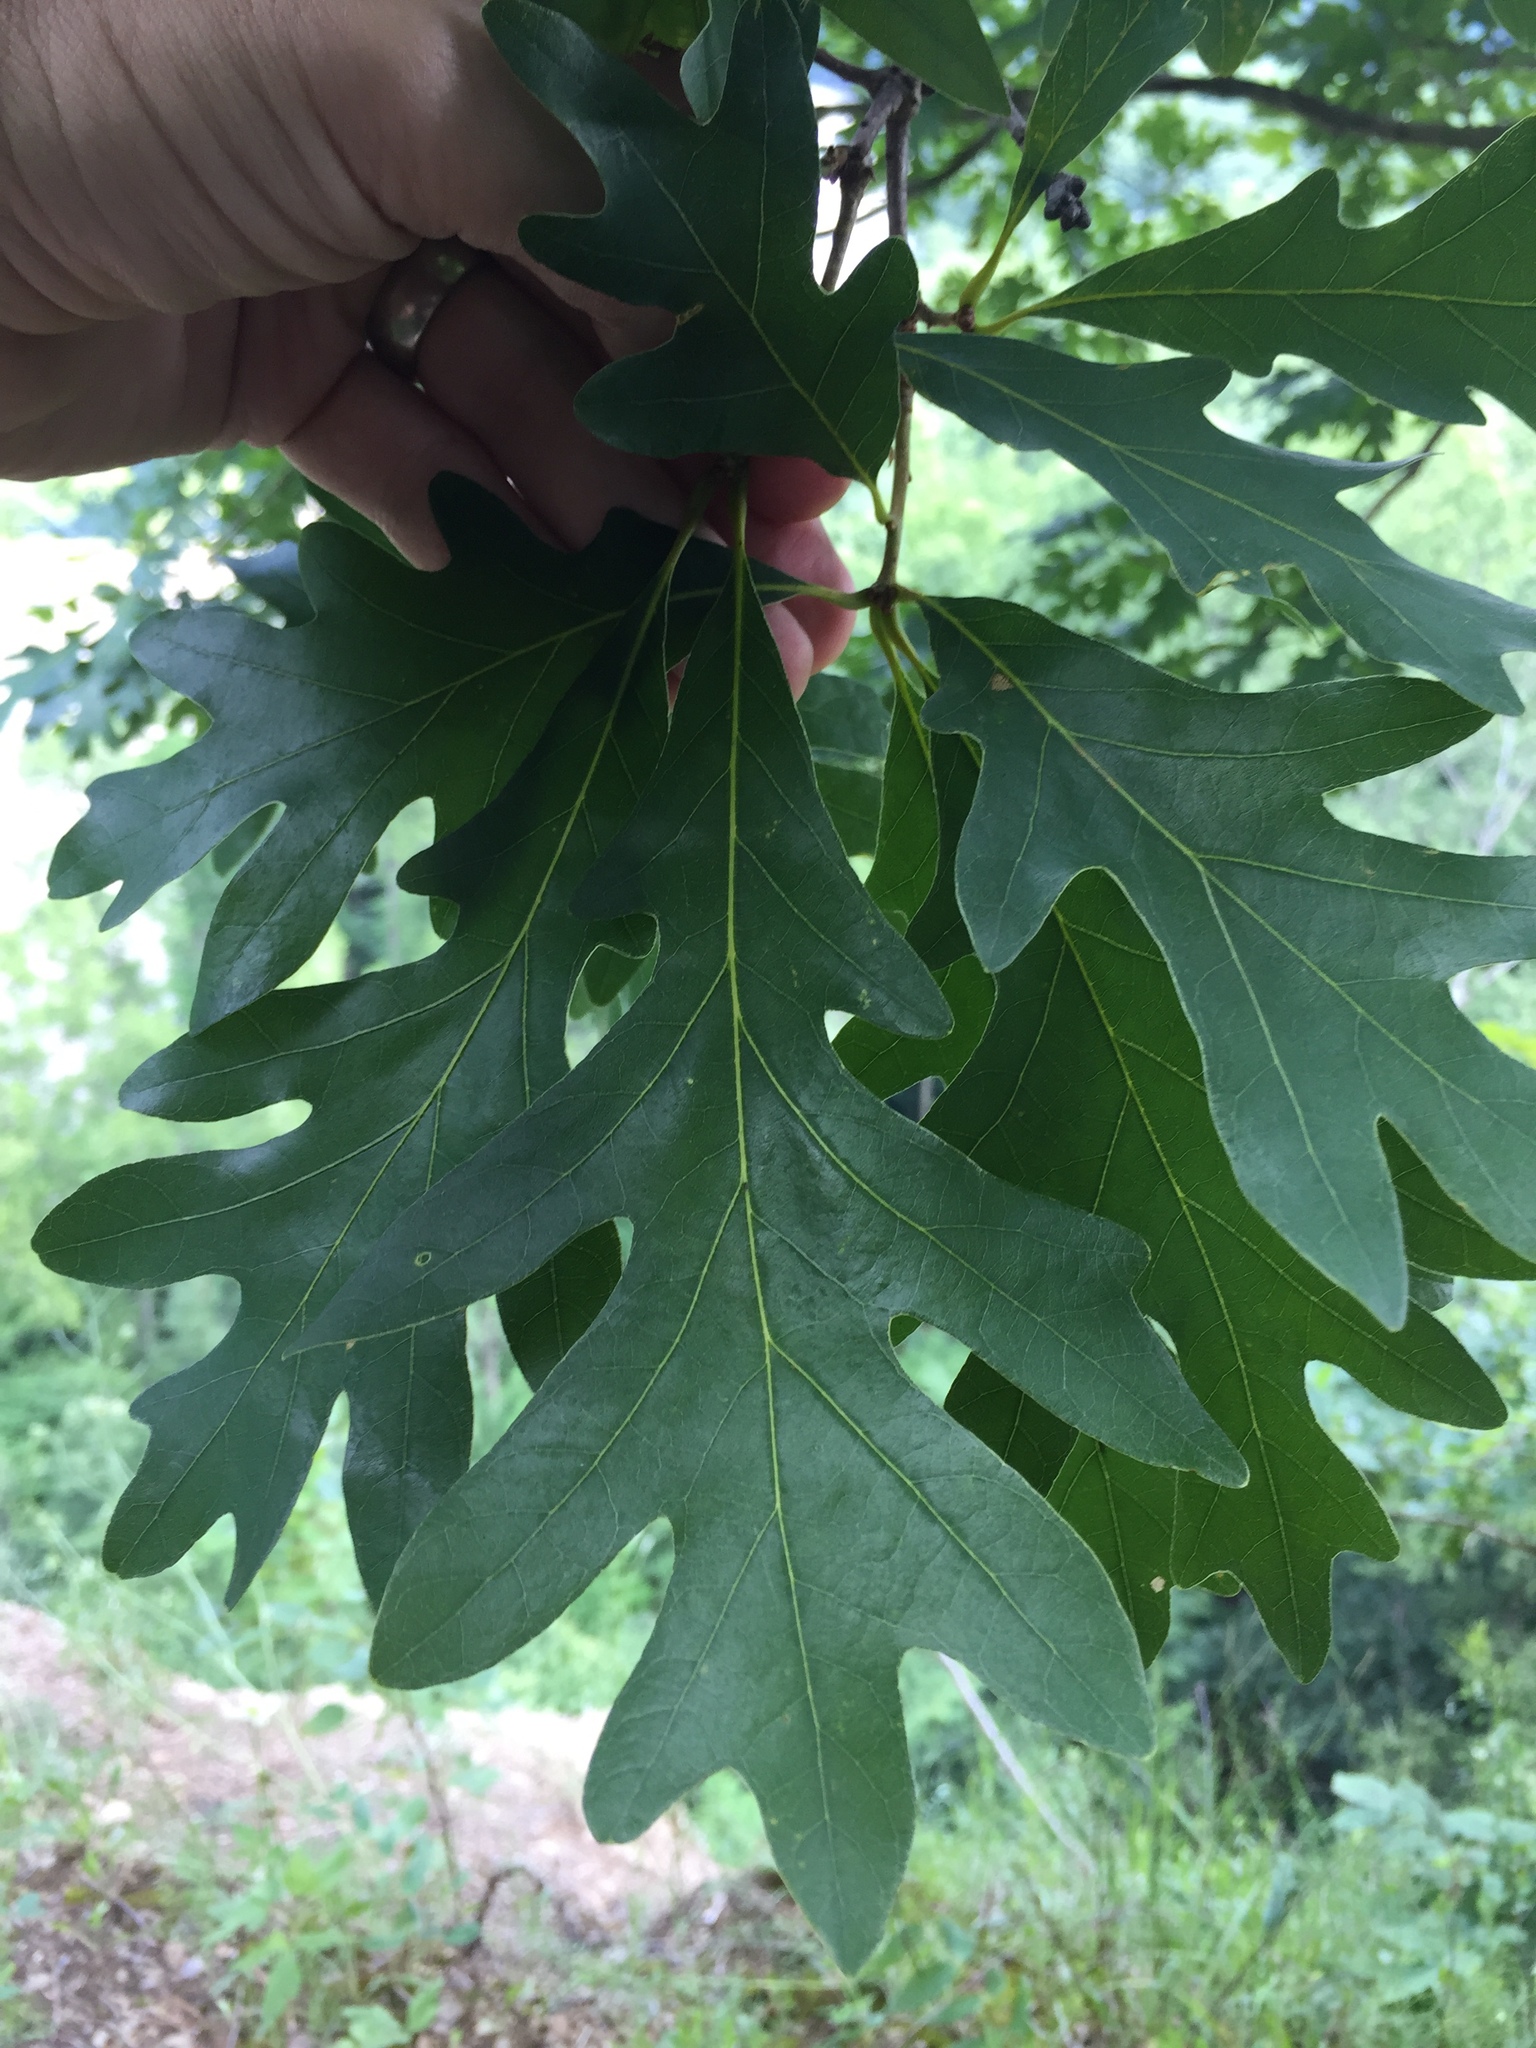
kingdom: Plantae
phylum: Tracheophyta
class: Magnoliopsida
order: Fagales
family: Fagaceae
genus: Quercus
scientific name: Quercus alba
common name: White oak
